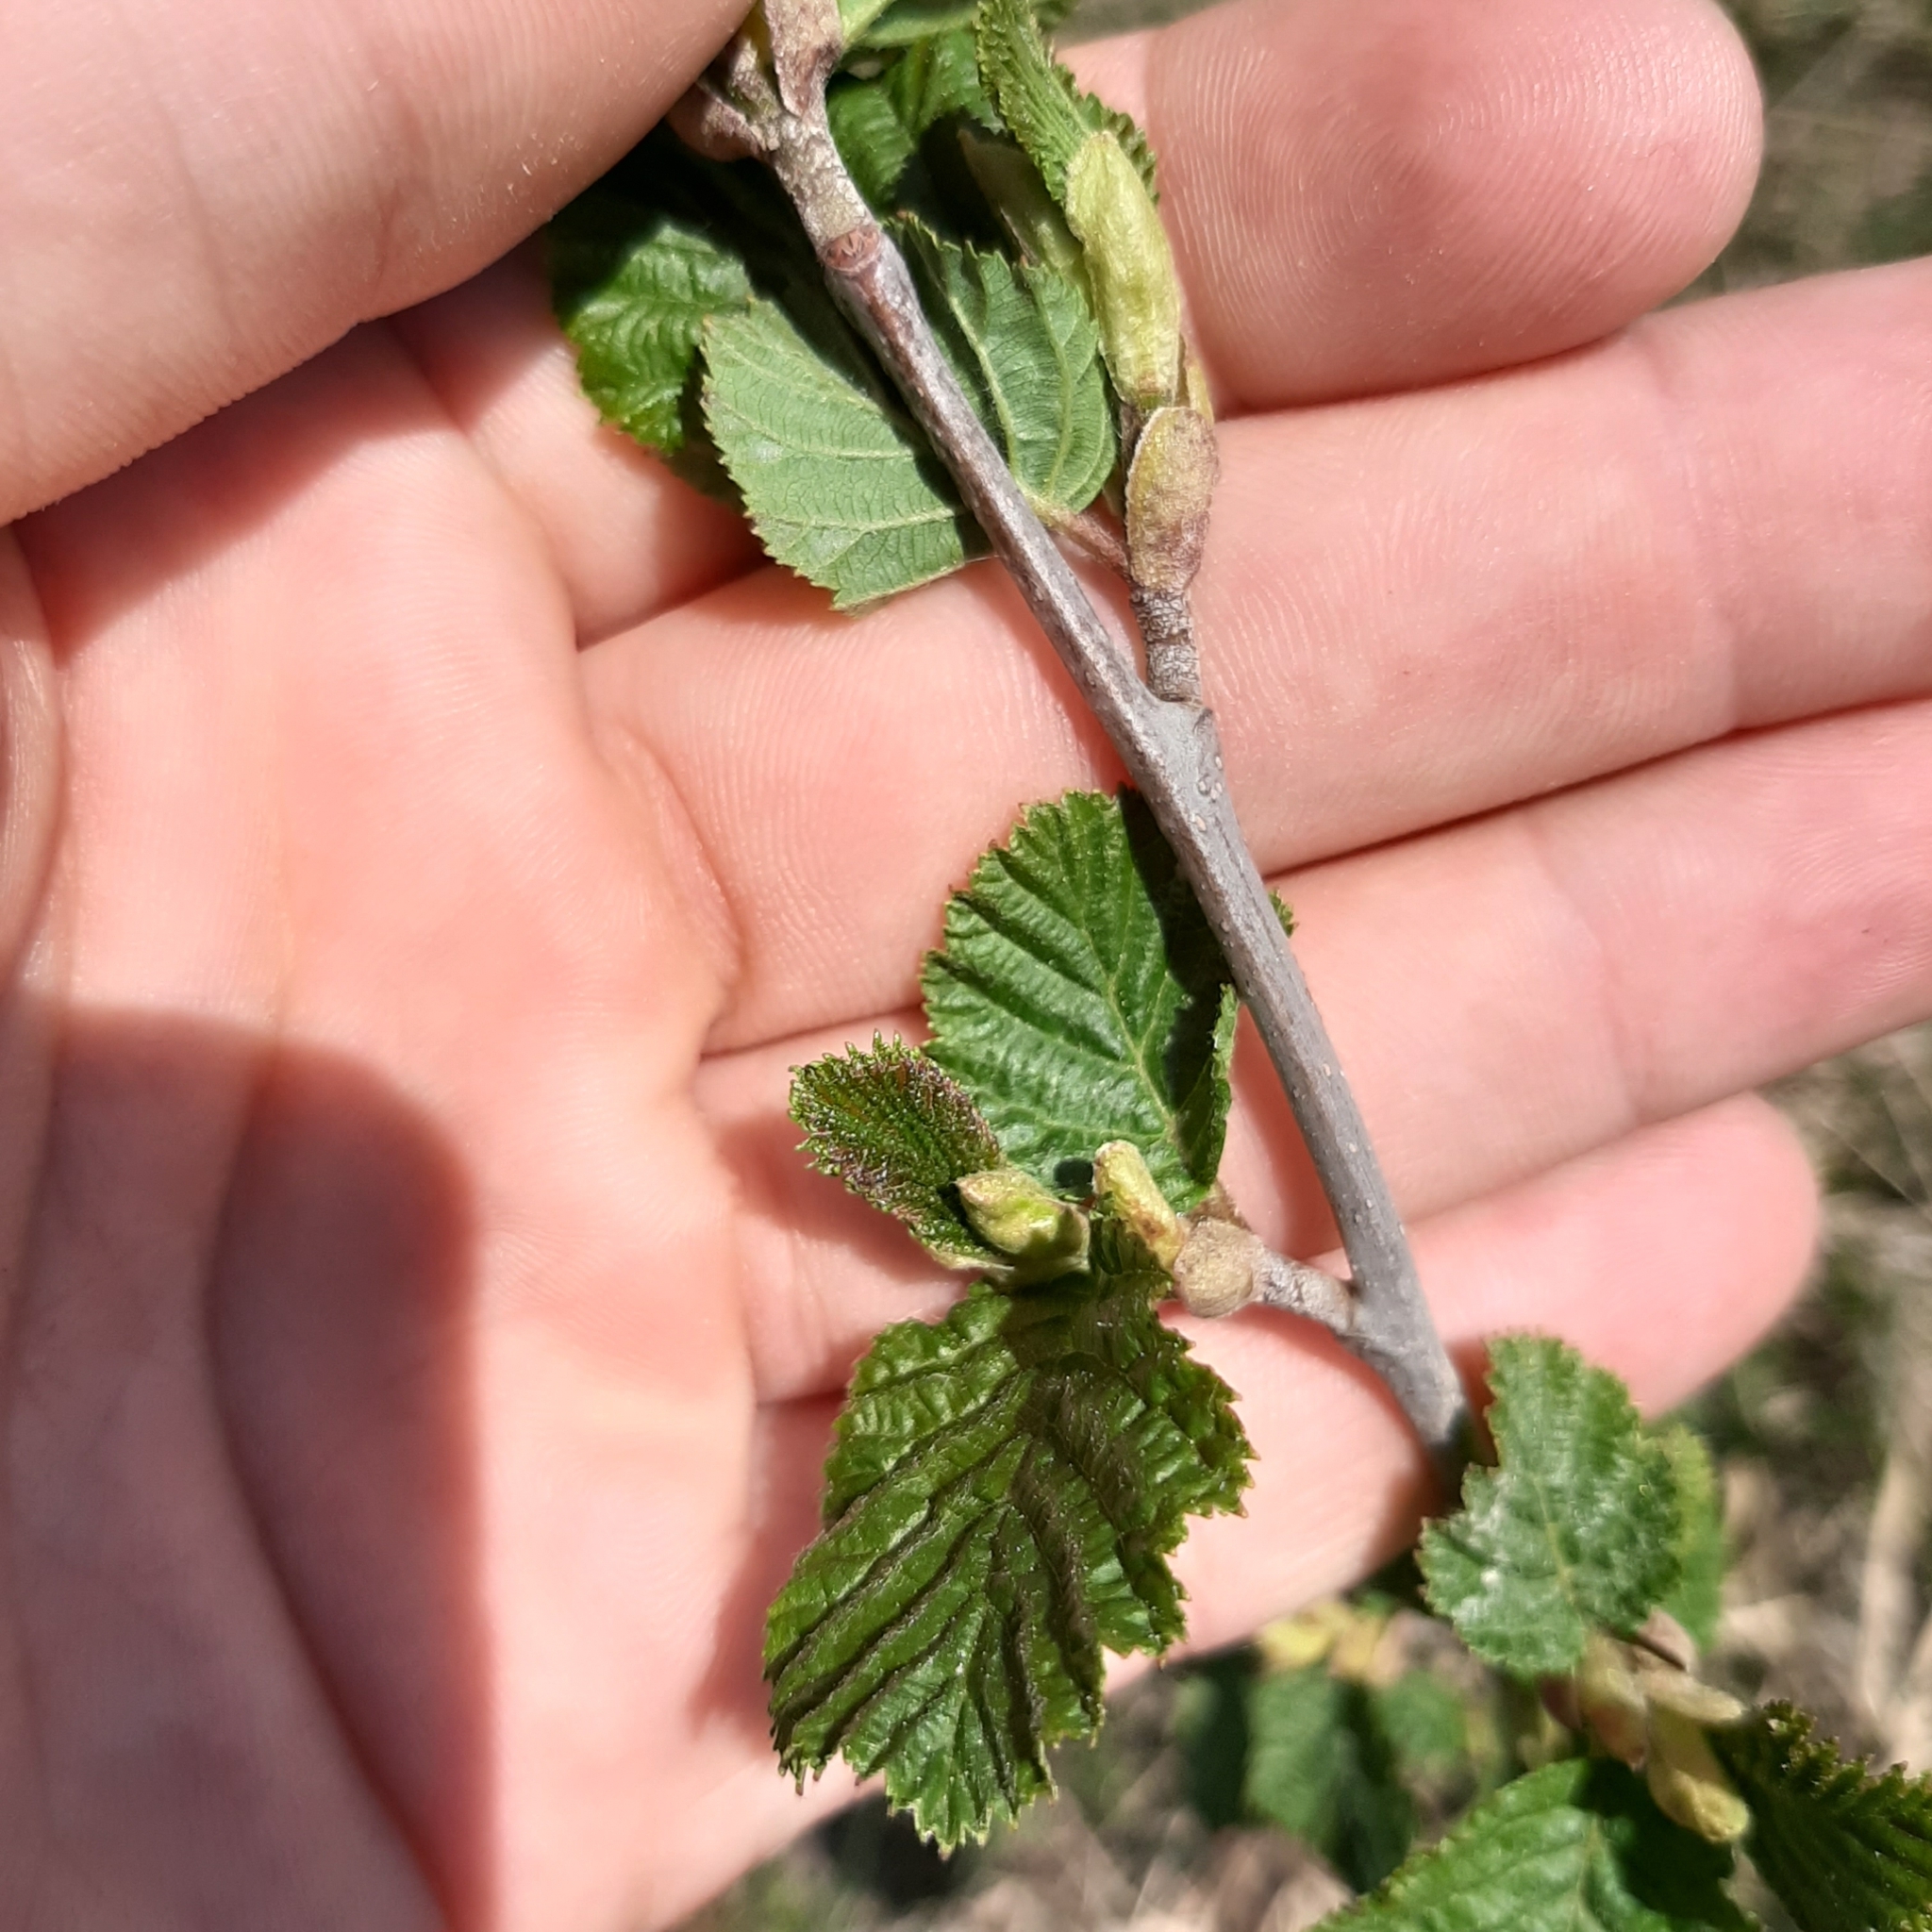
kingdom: Plantae
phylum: Tracheophyta
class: Magnoliopsida
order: Fagales
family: Betulaceae
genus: Alnus
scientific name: Alnus alnobetula
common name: Green alder
